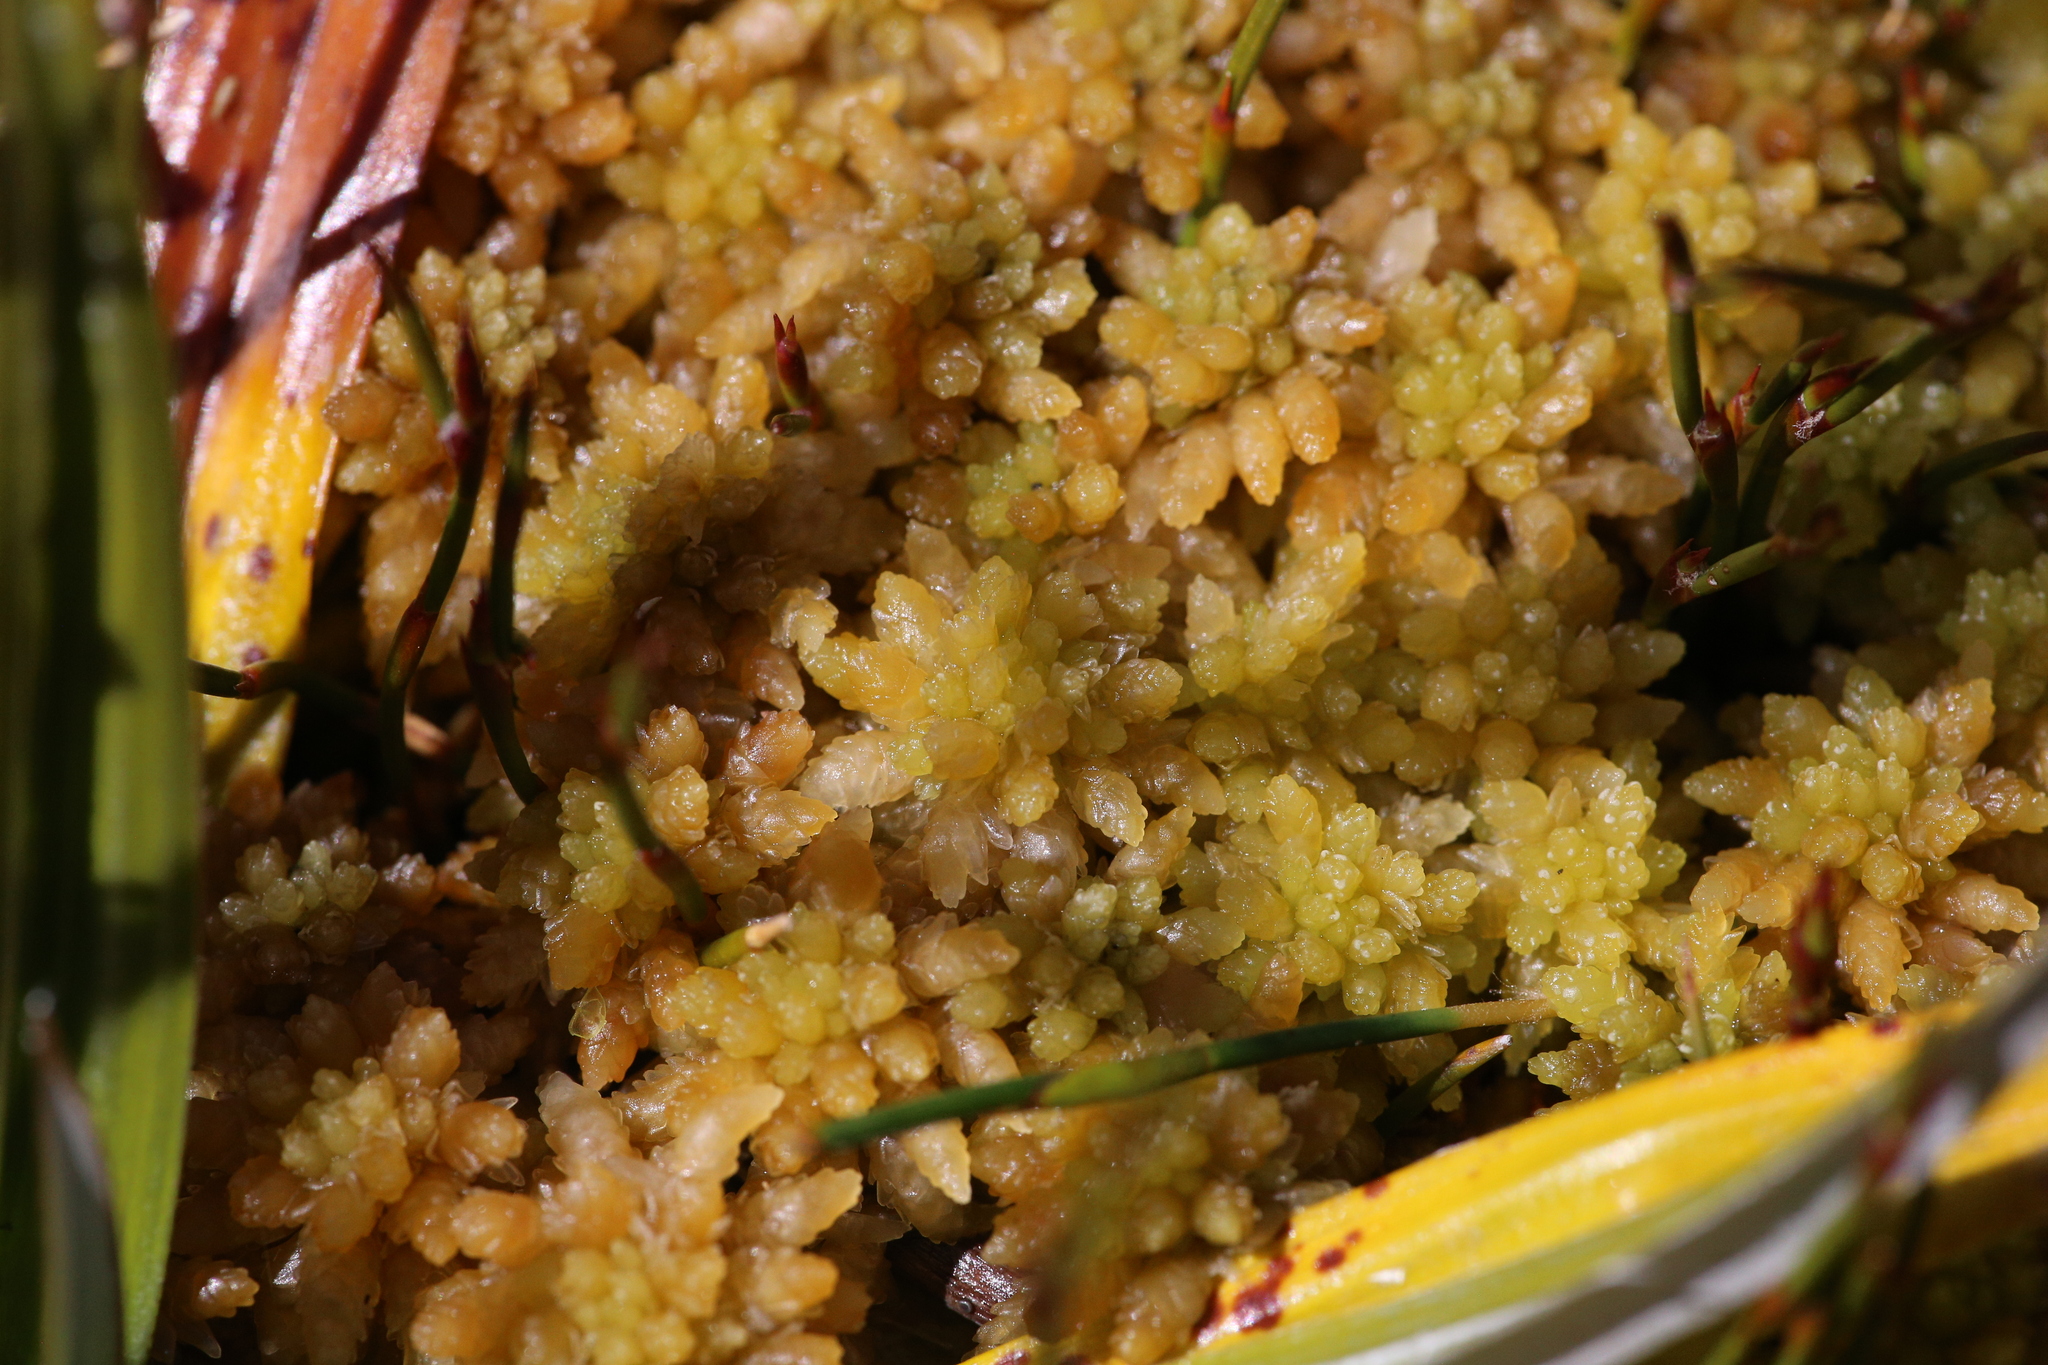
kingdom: Plantae
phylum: Bryophyta
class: Sphagnopsida
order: Sphagnales
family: Sphagnaceae
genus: Sphagnum
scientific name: Sphagnum cristatum
